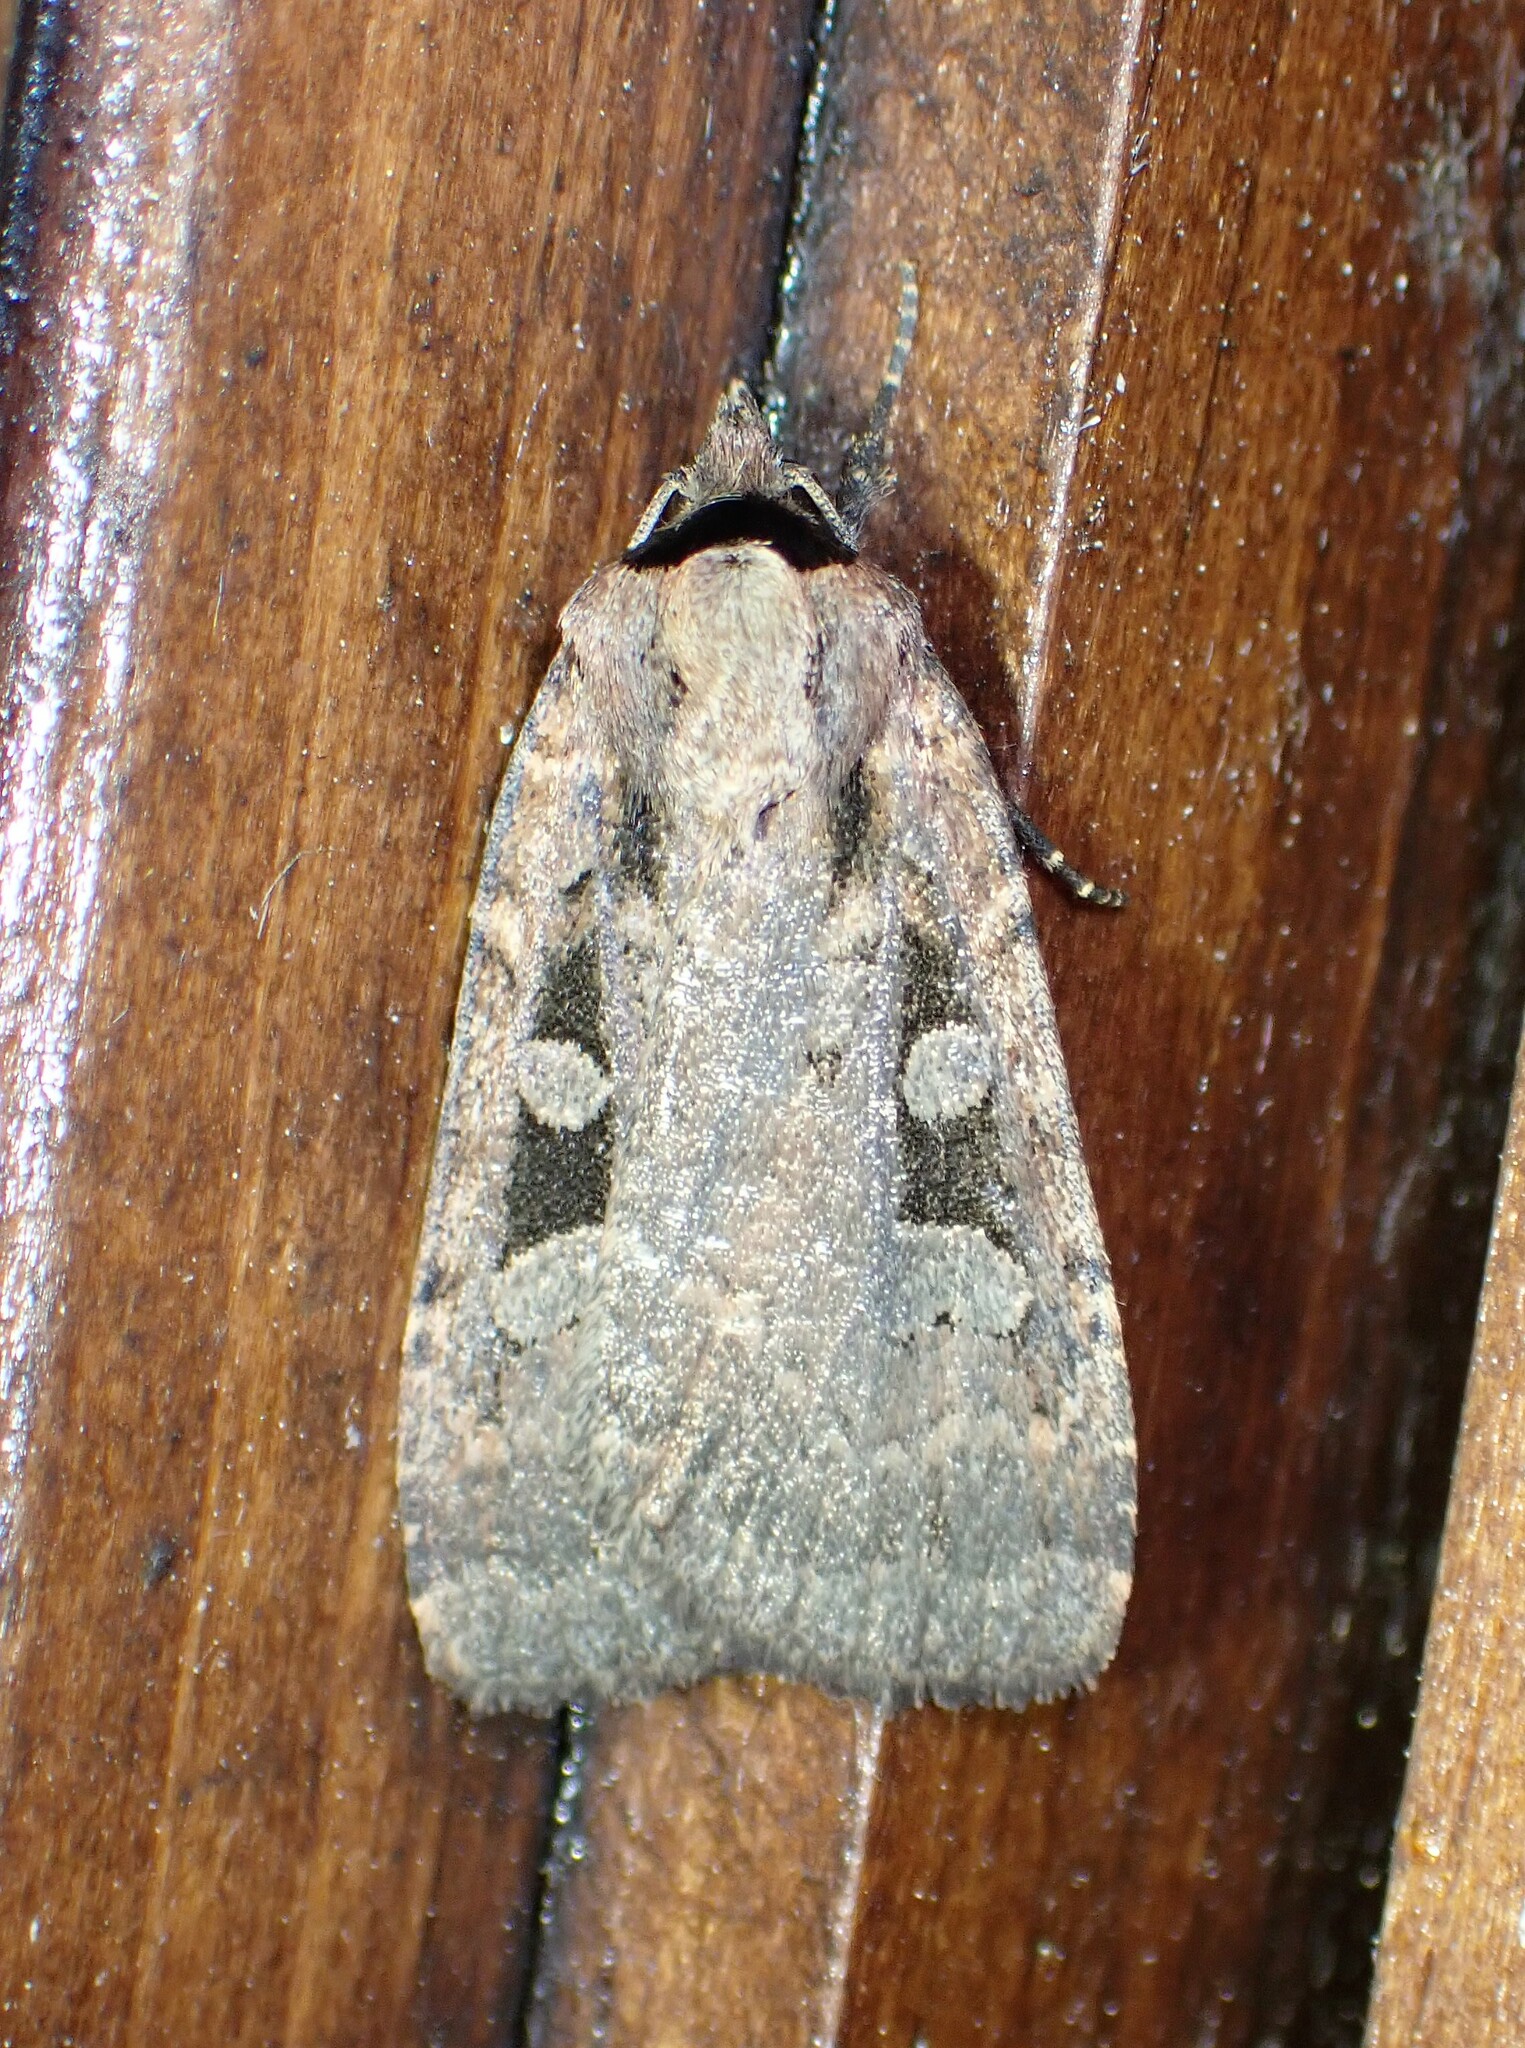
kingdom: Animalia
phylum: Arthropoda
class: Insecta
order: Lepidoptera
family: Noctuidae
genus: Eueretagrotis
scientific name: Eueretagrotis perattentus
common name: Two-spot dart moth
